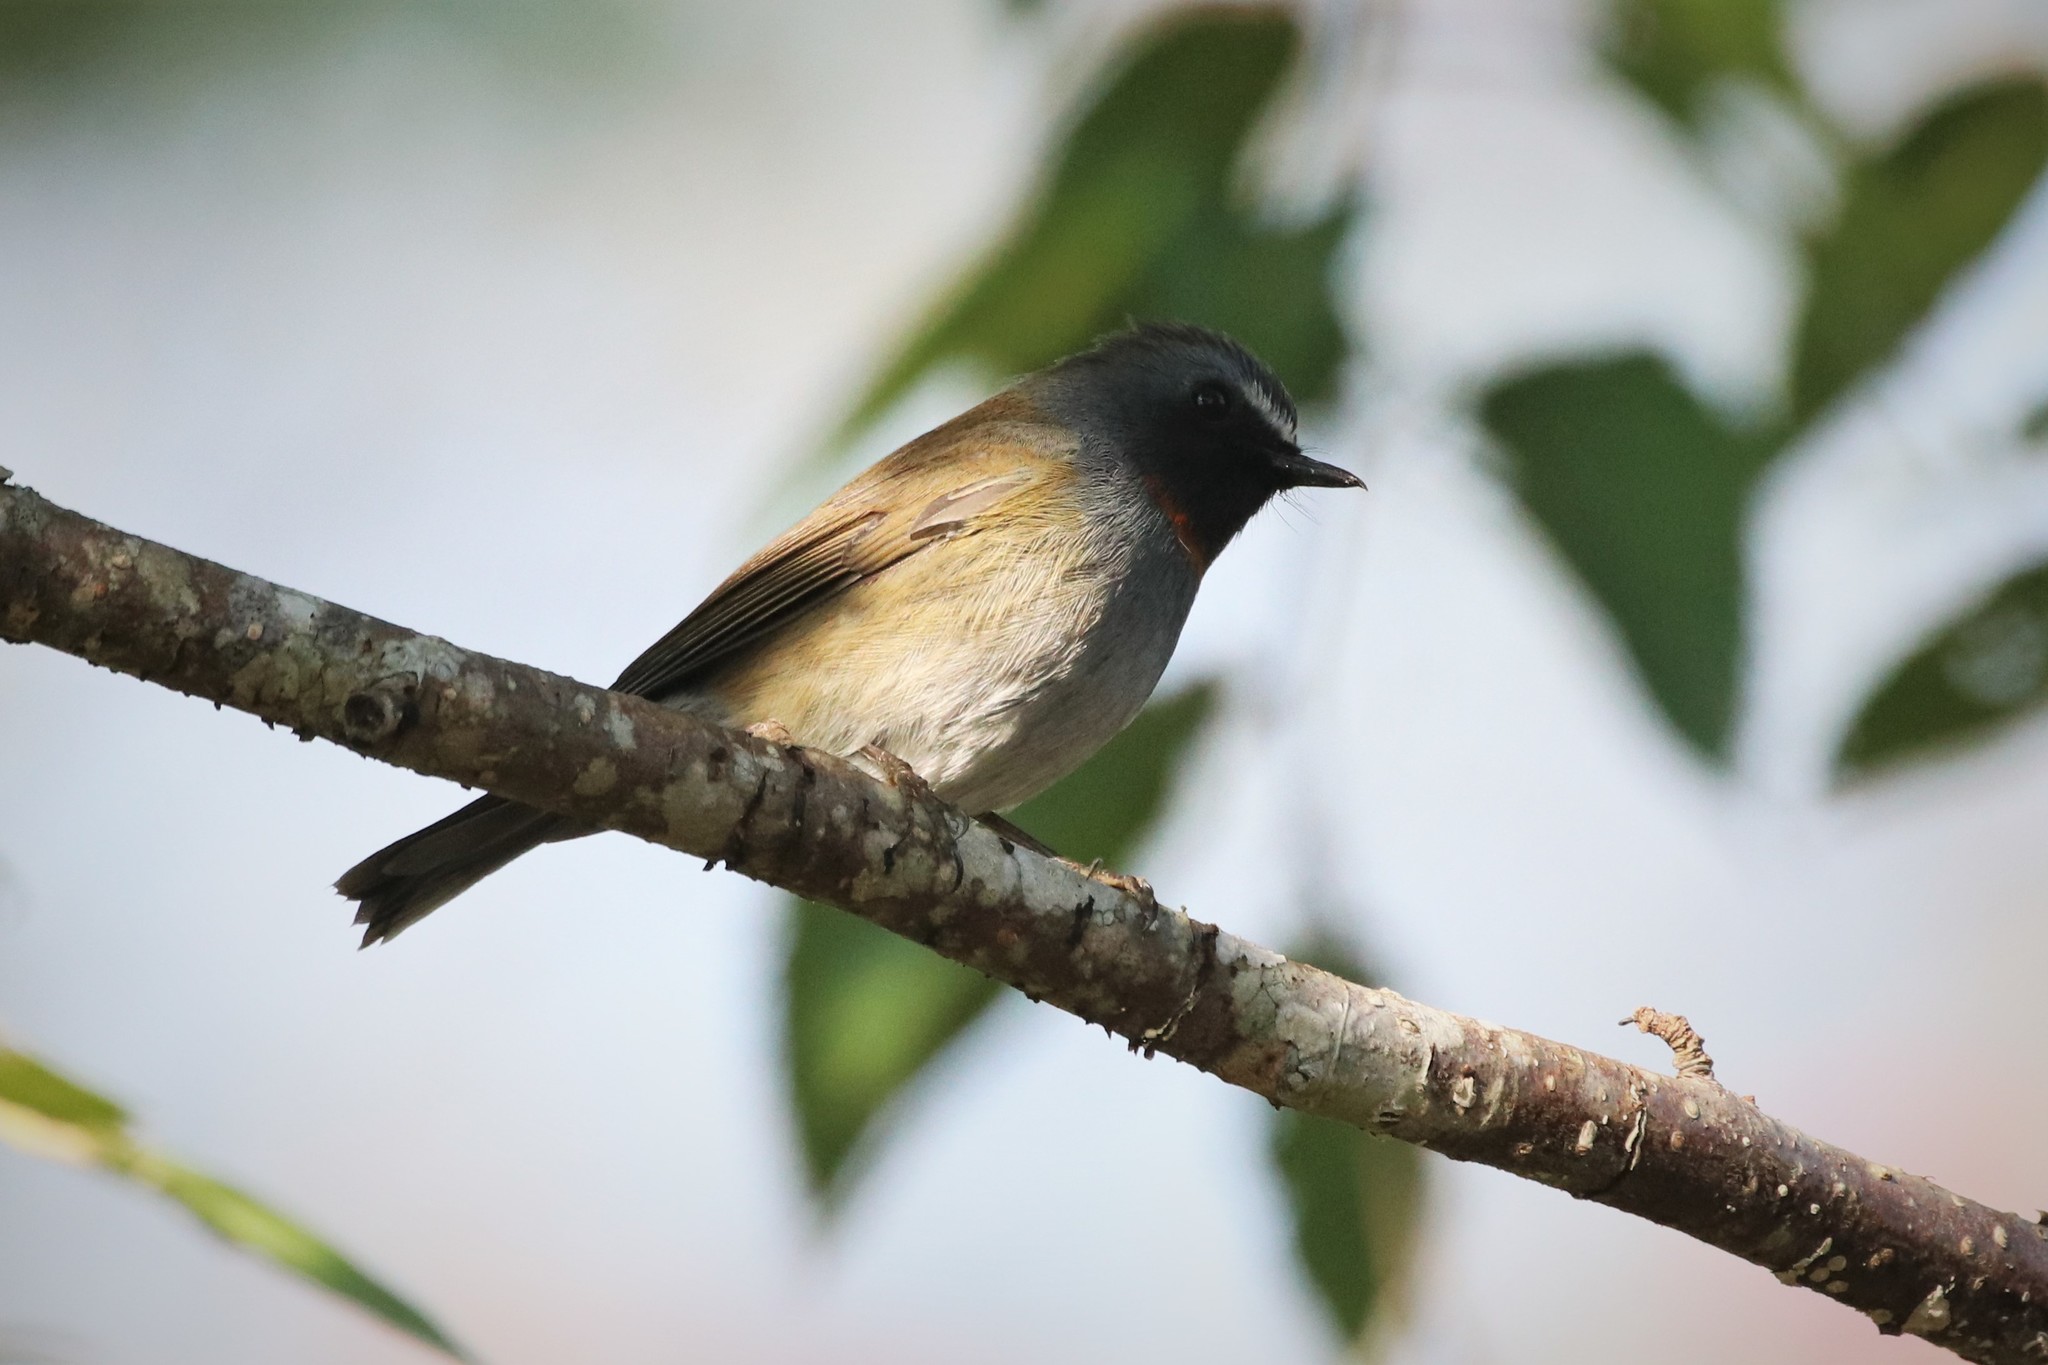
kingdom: Animalia
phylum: Chordata
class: Aves
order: Passeriformes
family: Muscicapidae
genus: Ficedula
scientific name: Ficedula strophiata
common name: Rufous-gorgeted flycatcher
